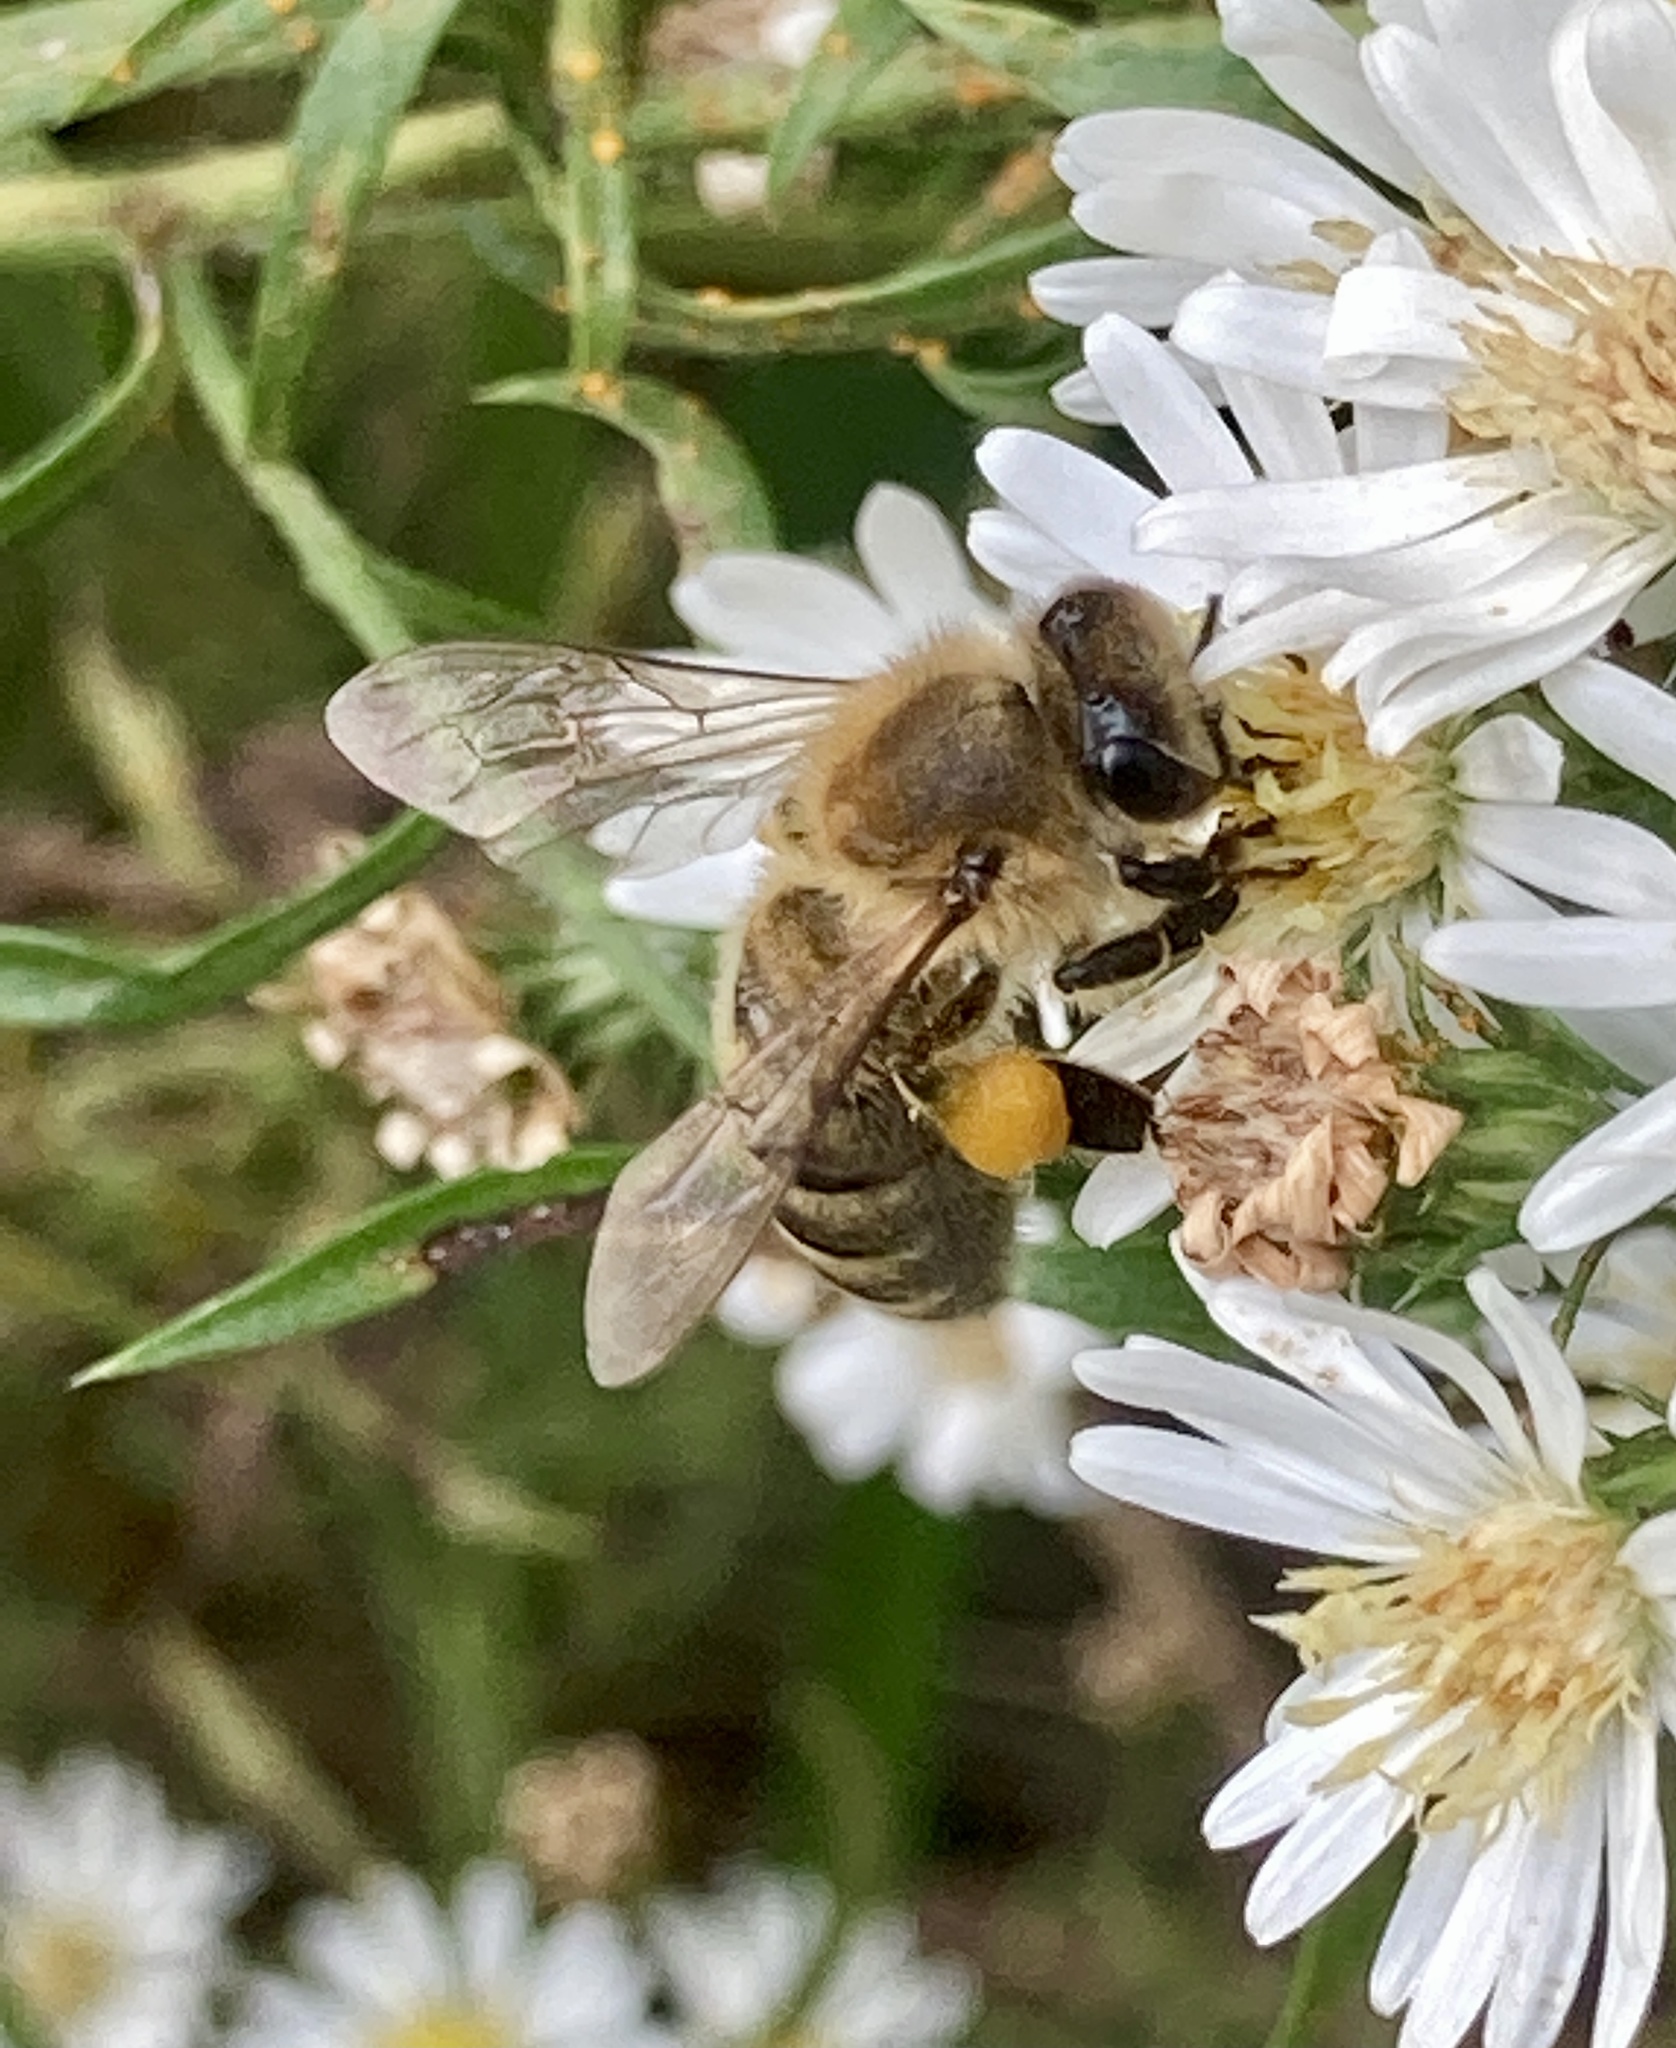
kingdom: Animalia
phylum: Arthropoda
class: Insecta
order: Hymenoptera
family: Apidae
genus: Apis
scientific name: Apis mellifera
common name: Honey bee
